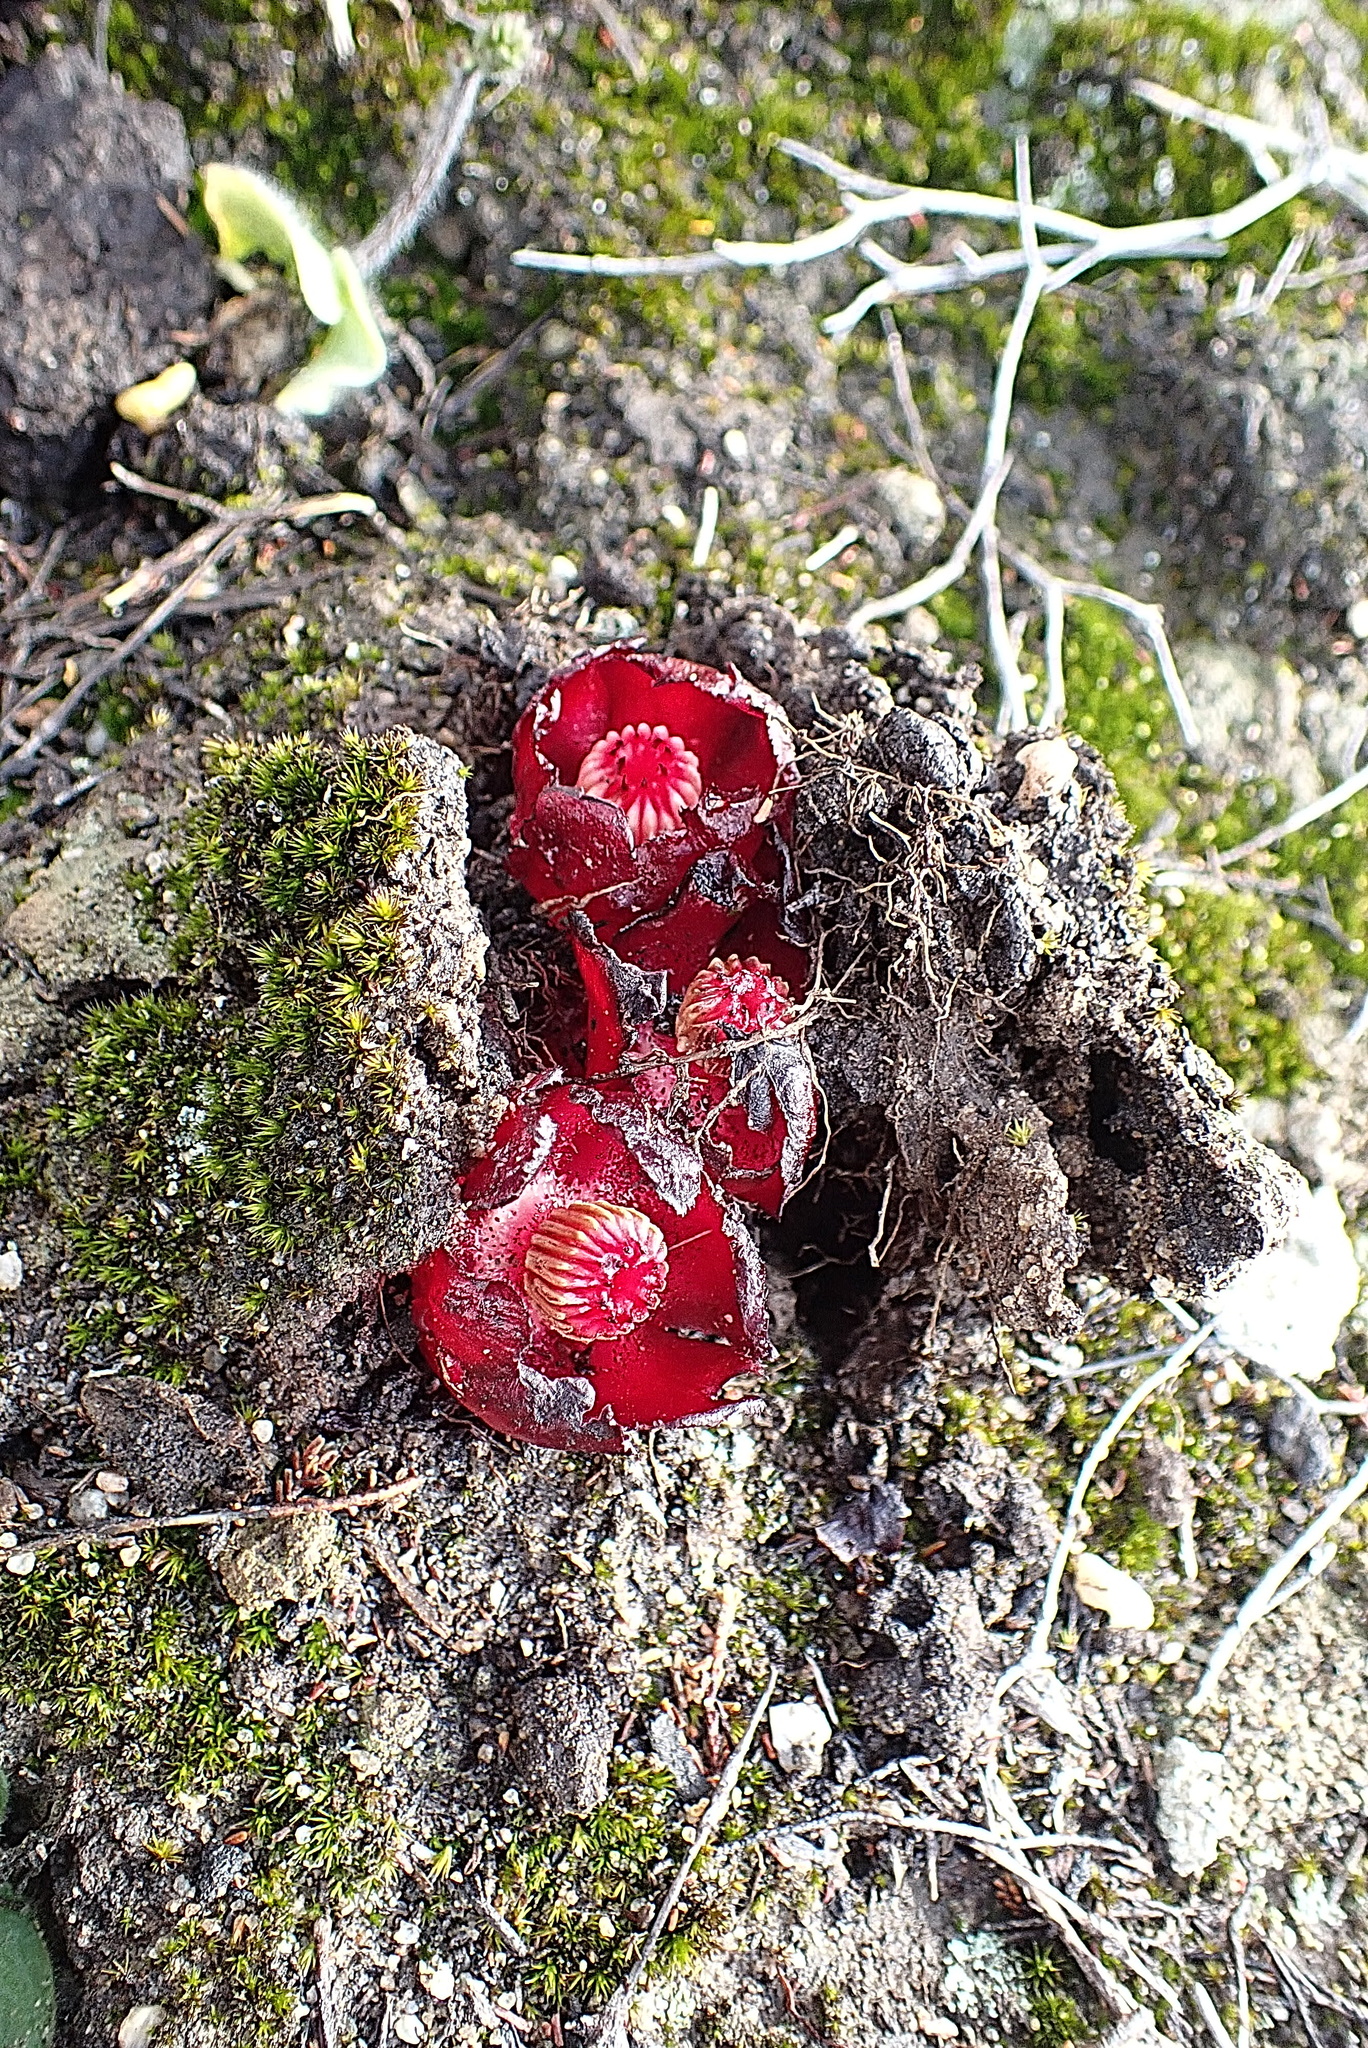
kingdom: Plantae
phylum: Tracheophyta
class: Magnoliopsida
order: Malvales
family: Cytinaceae
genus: Cytinus
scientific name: Cytinus sanguineus
